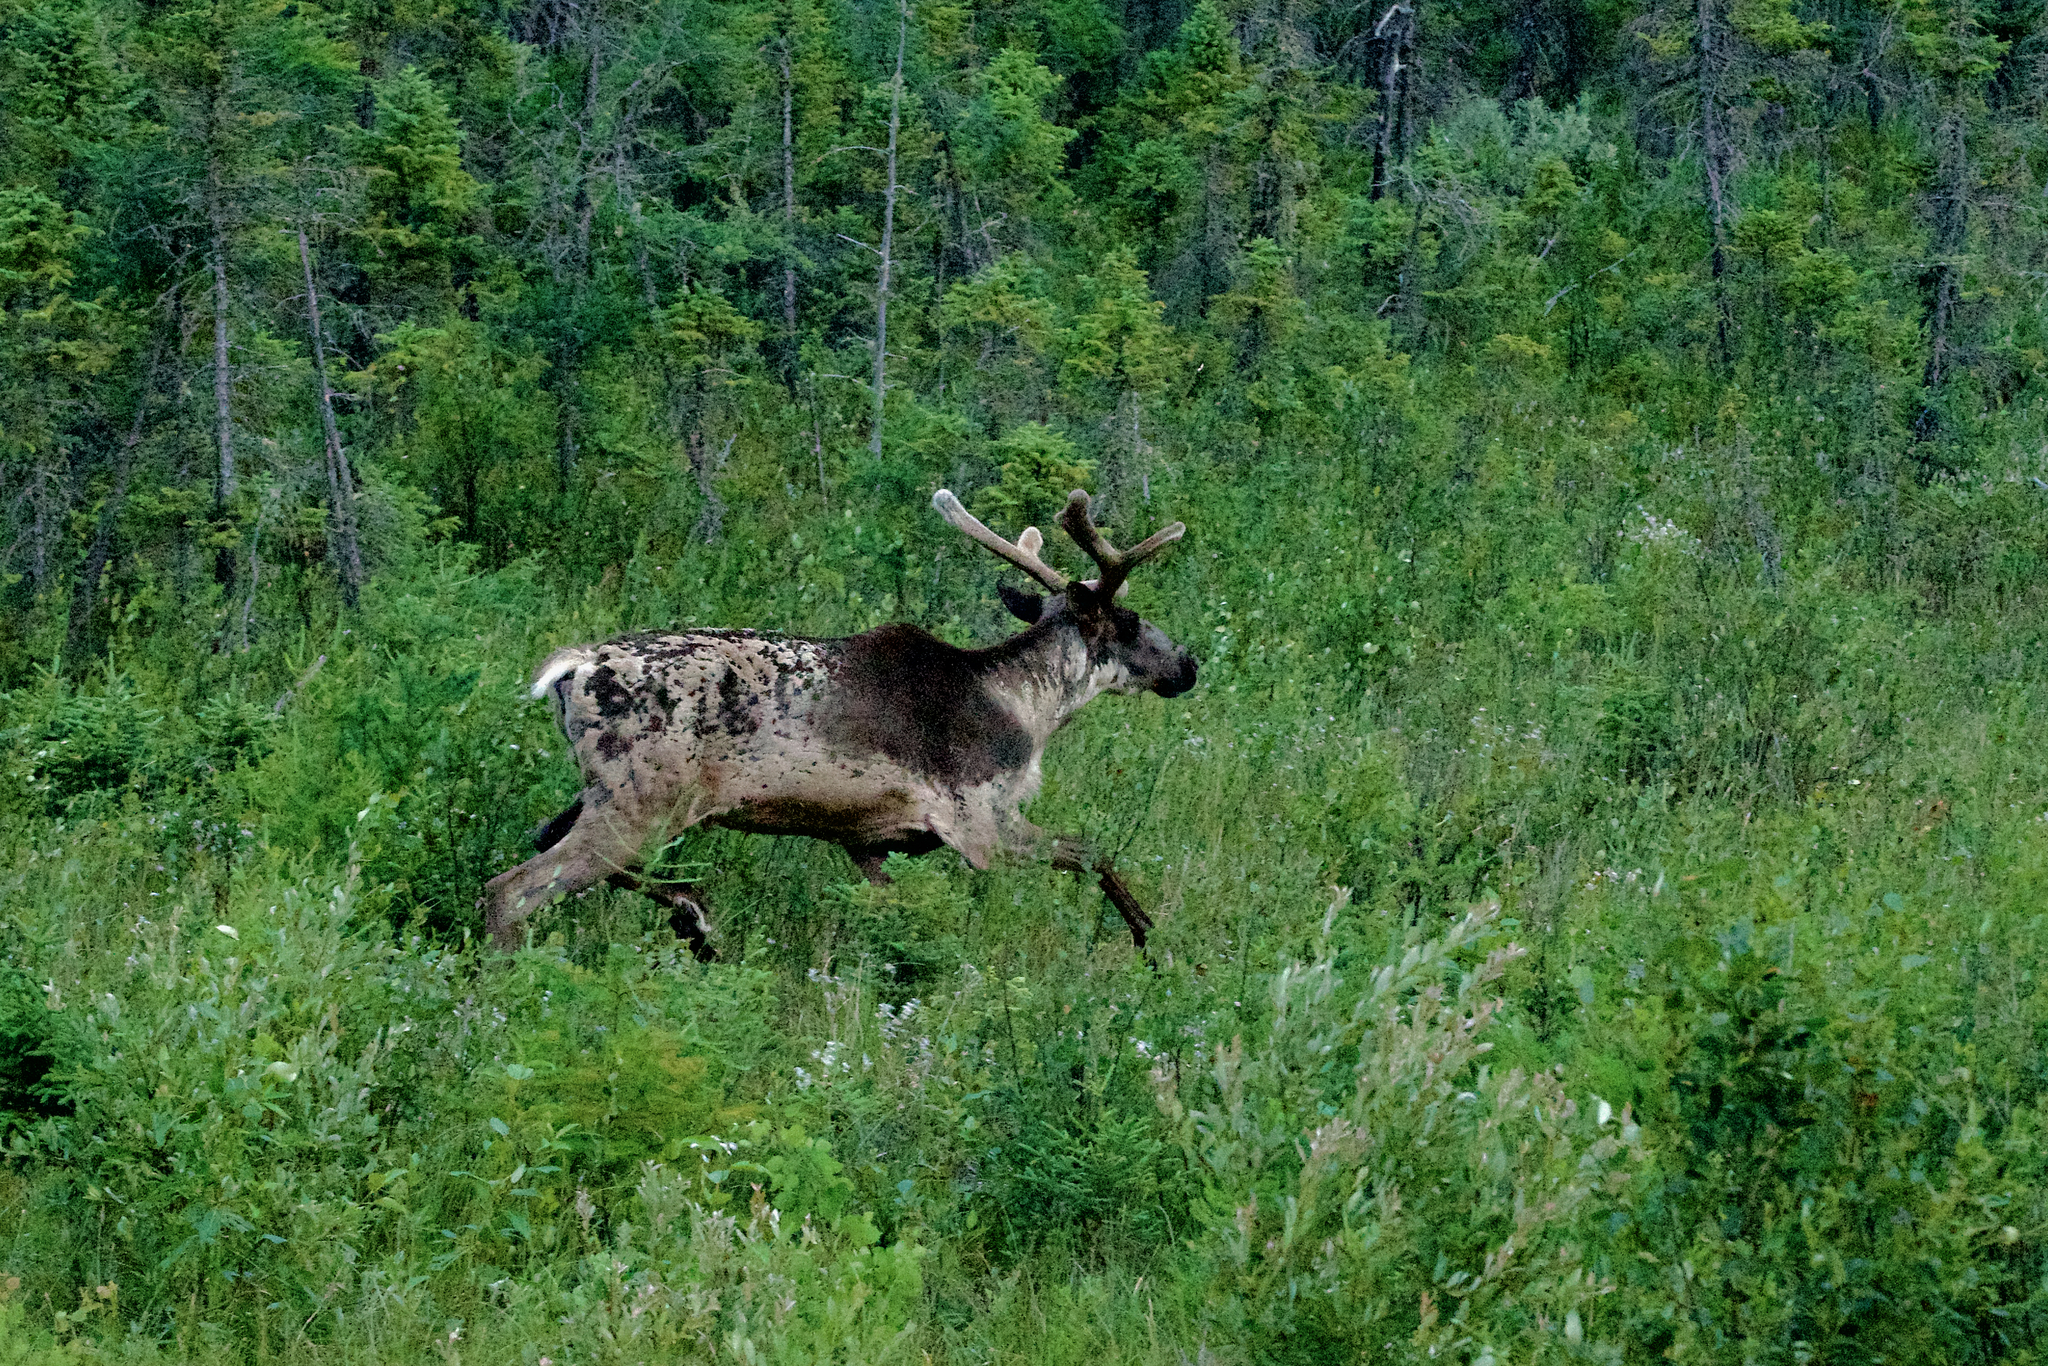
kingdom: Animalia
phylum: Chordata
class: Mammalia
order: Artiodactyla
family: Cervidae
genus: Rangifer
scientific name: Rangifer tarandus
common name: Reindeer
